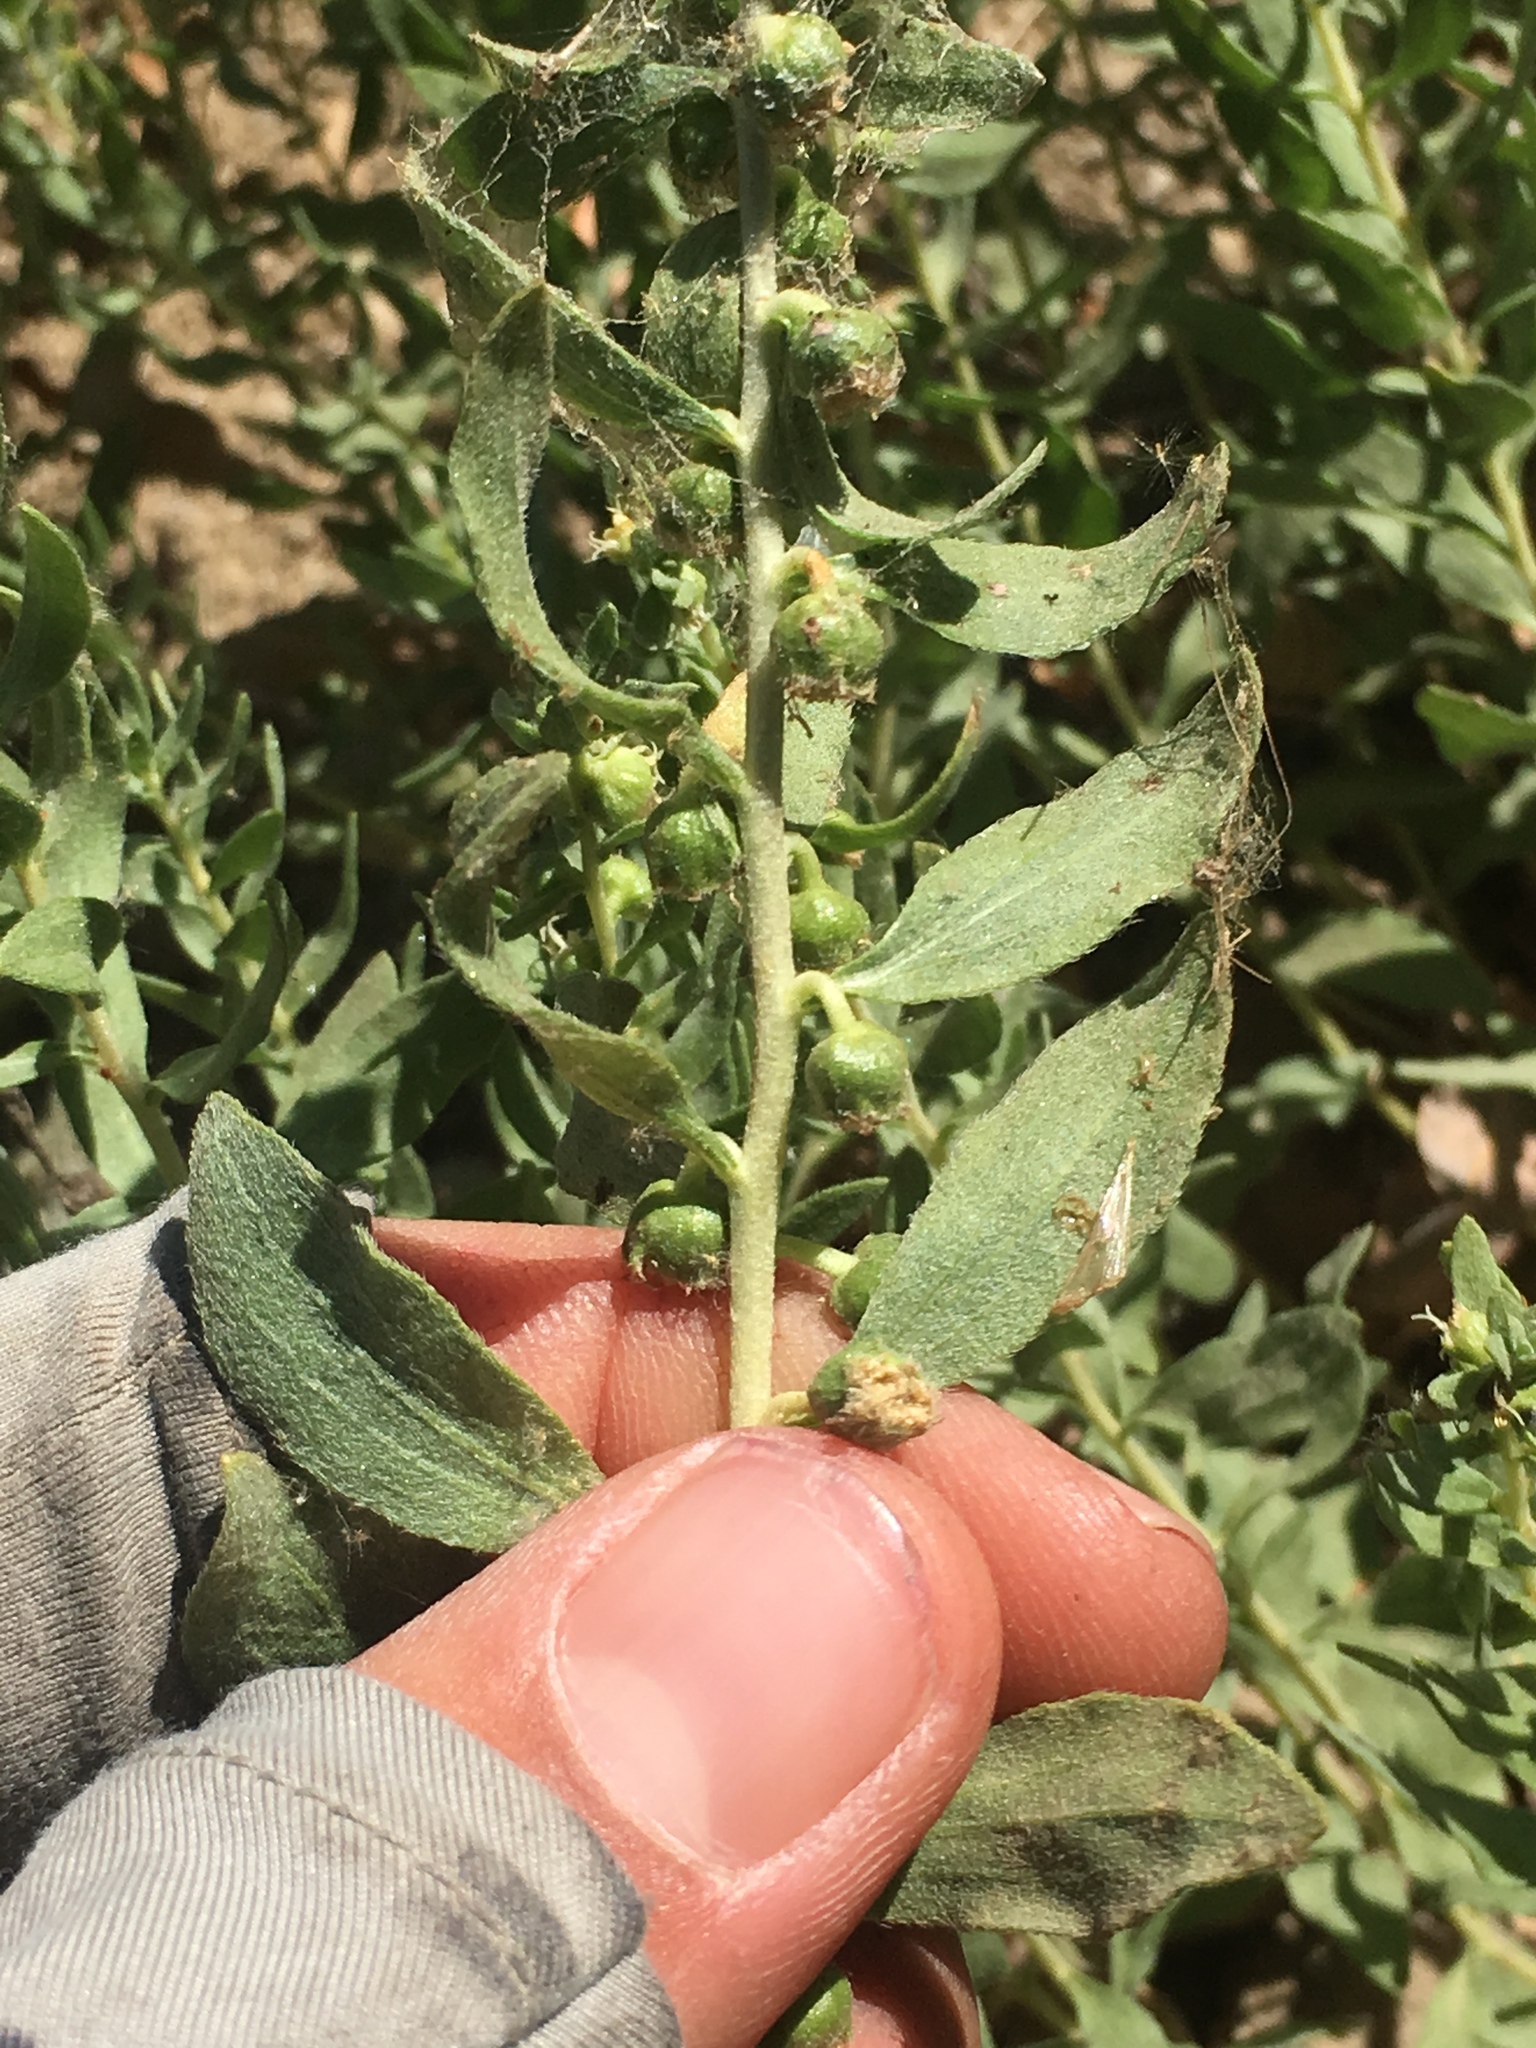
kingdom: Plantae
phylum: Tracheophyta
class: Magnoliopsida
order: Asterales
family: Asteraceae
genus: Iva
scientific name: Iva axillaris
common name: Poverty sumpweed
